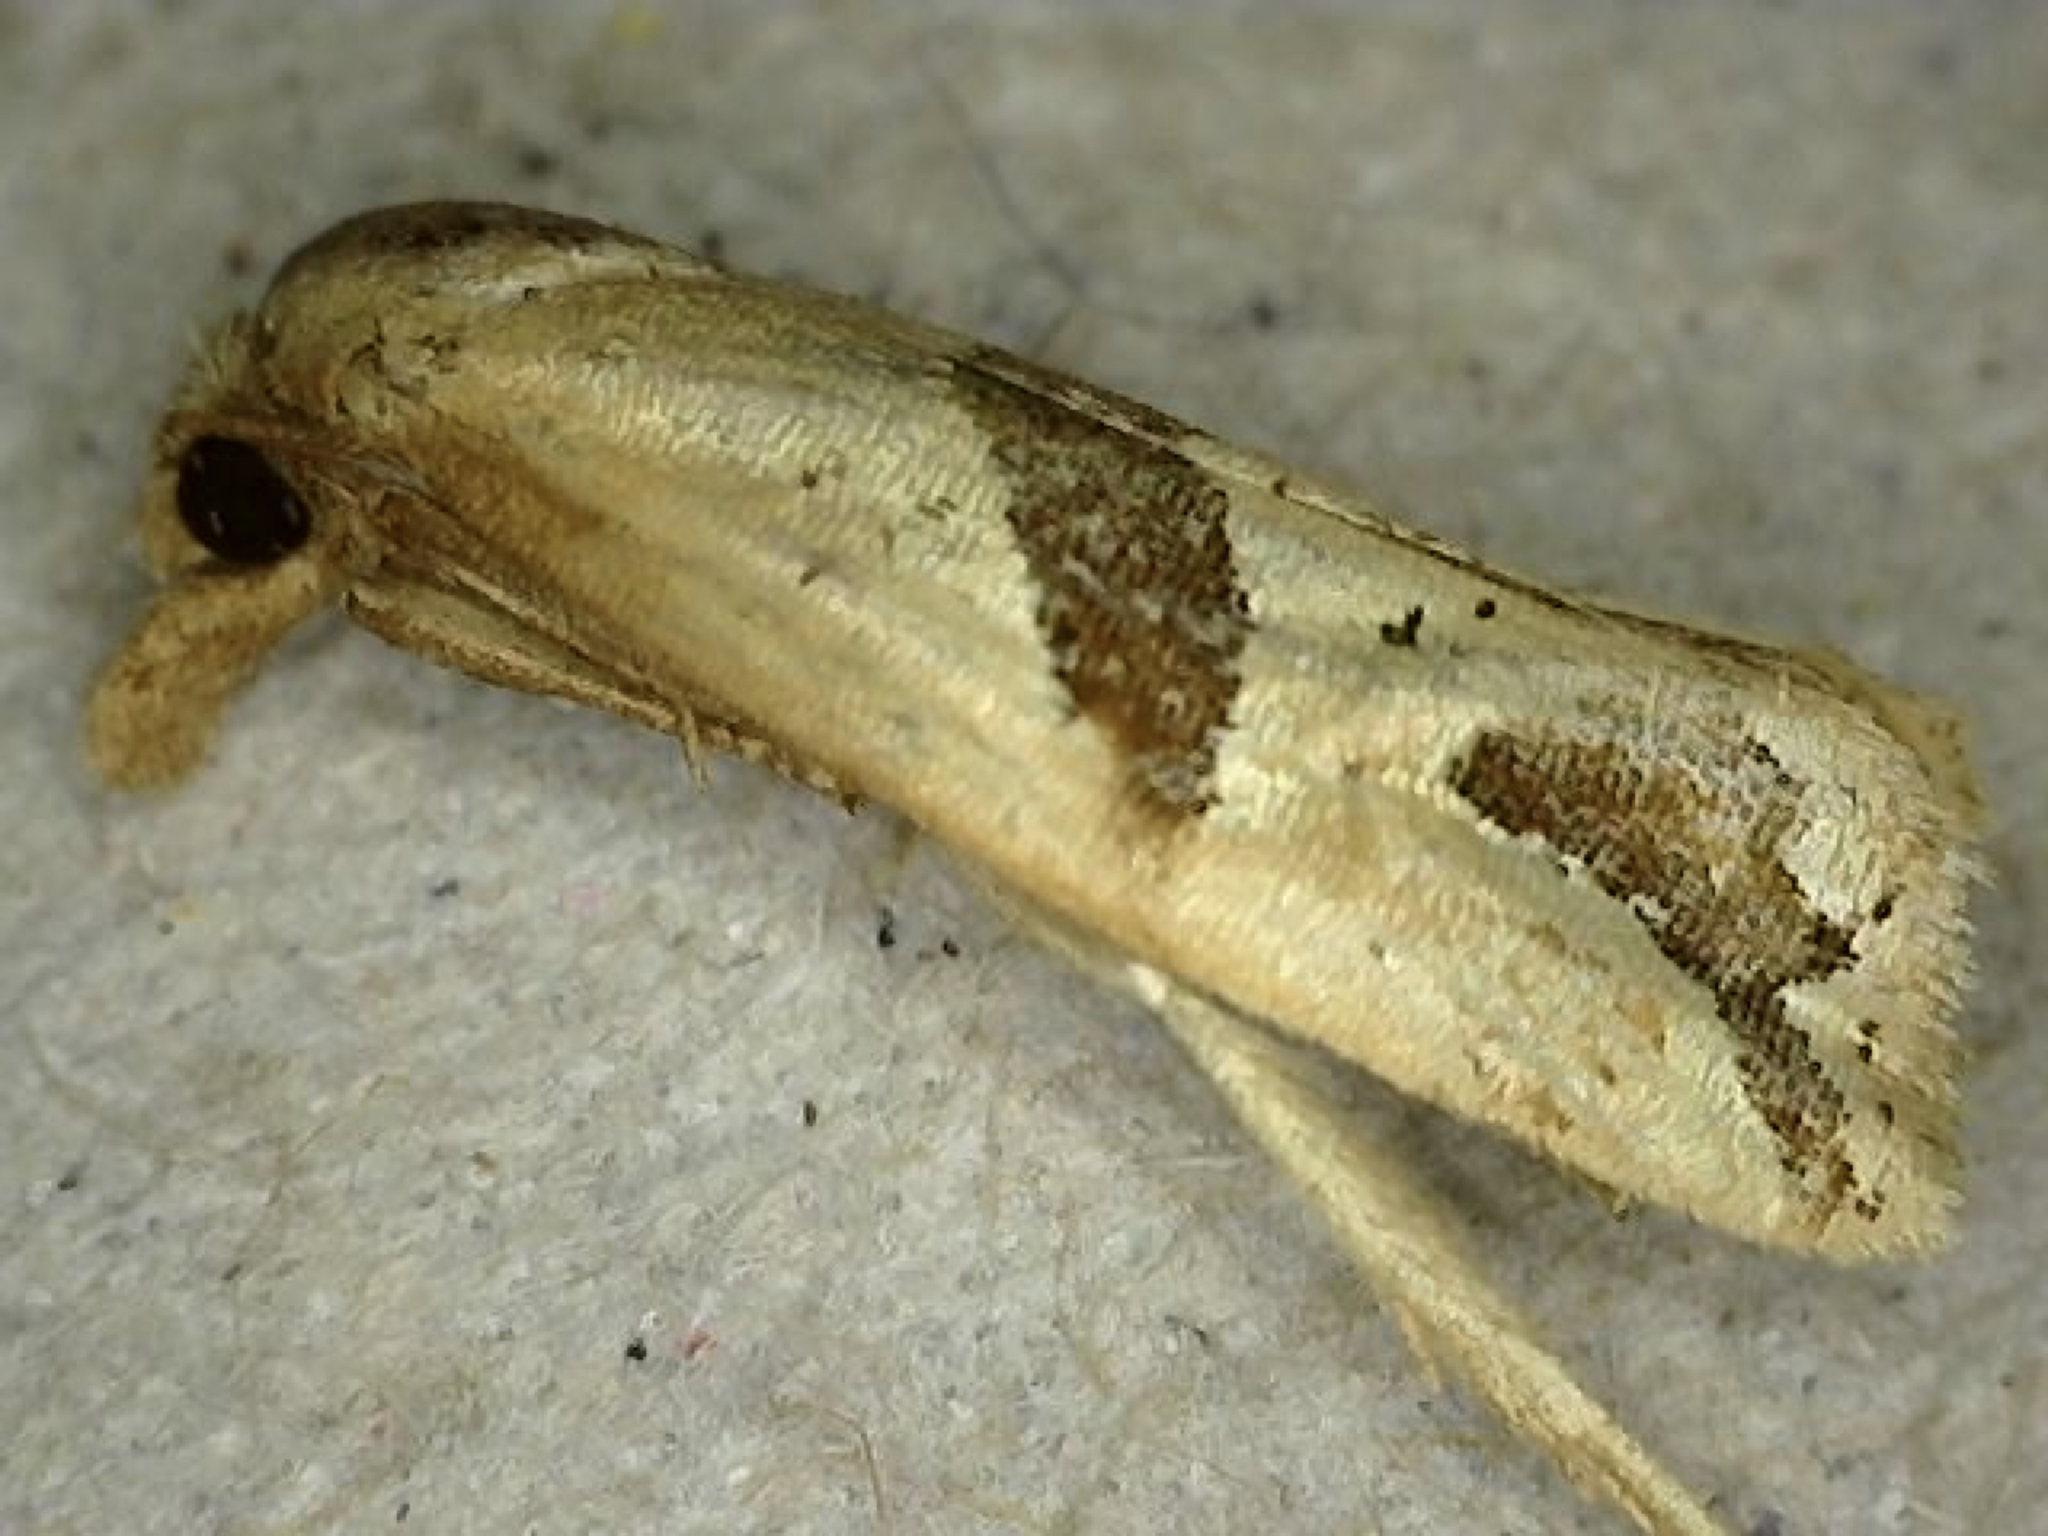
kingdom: Animalia
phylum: Arthropoda
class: Insecta
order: Lepidoptera
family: Tortricidae
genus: Eugnosta
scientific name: Eugnosta sartana
